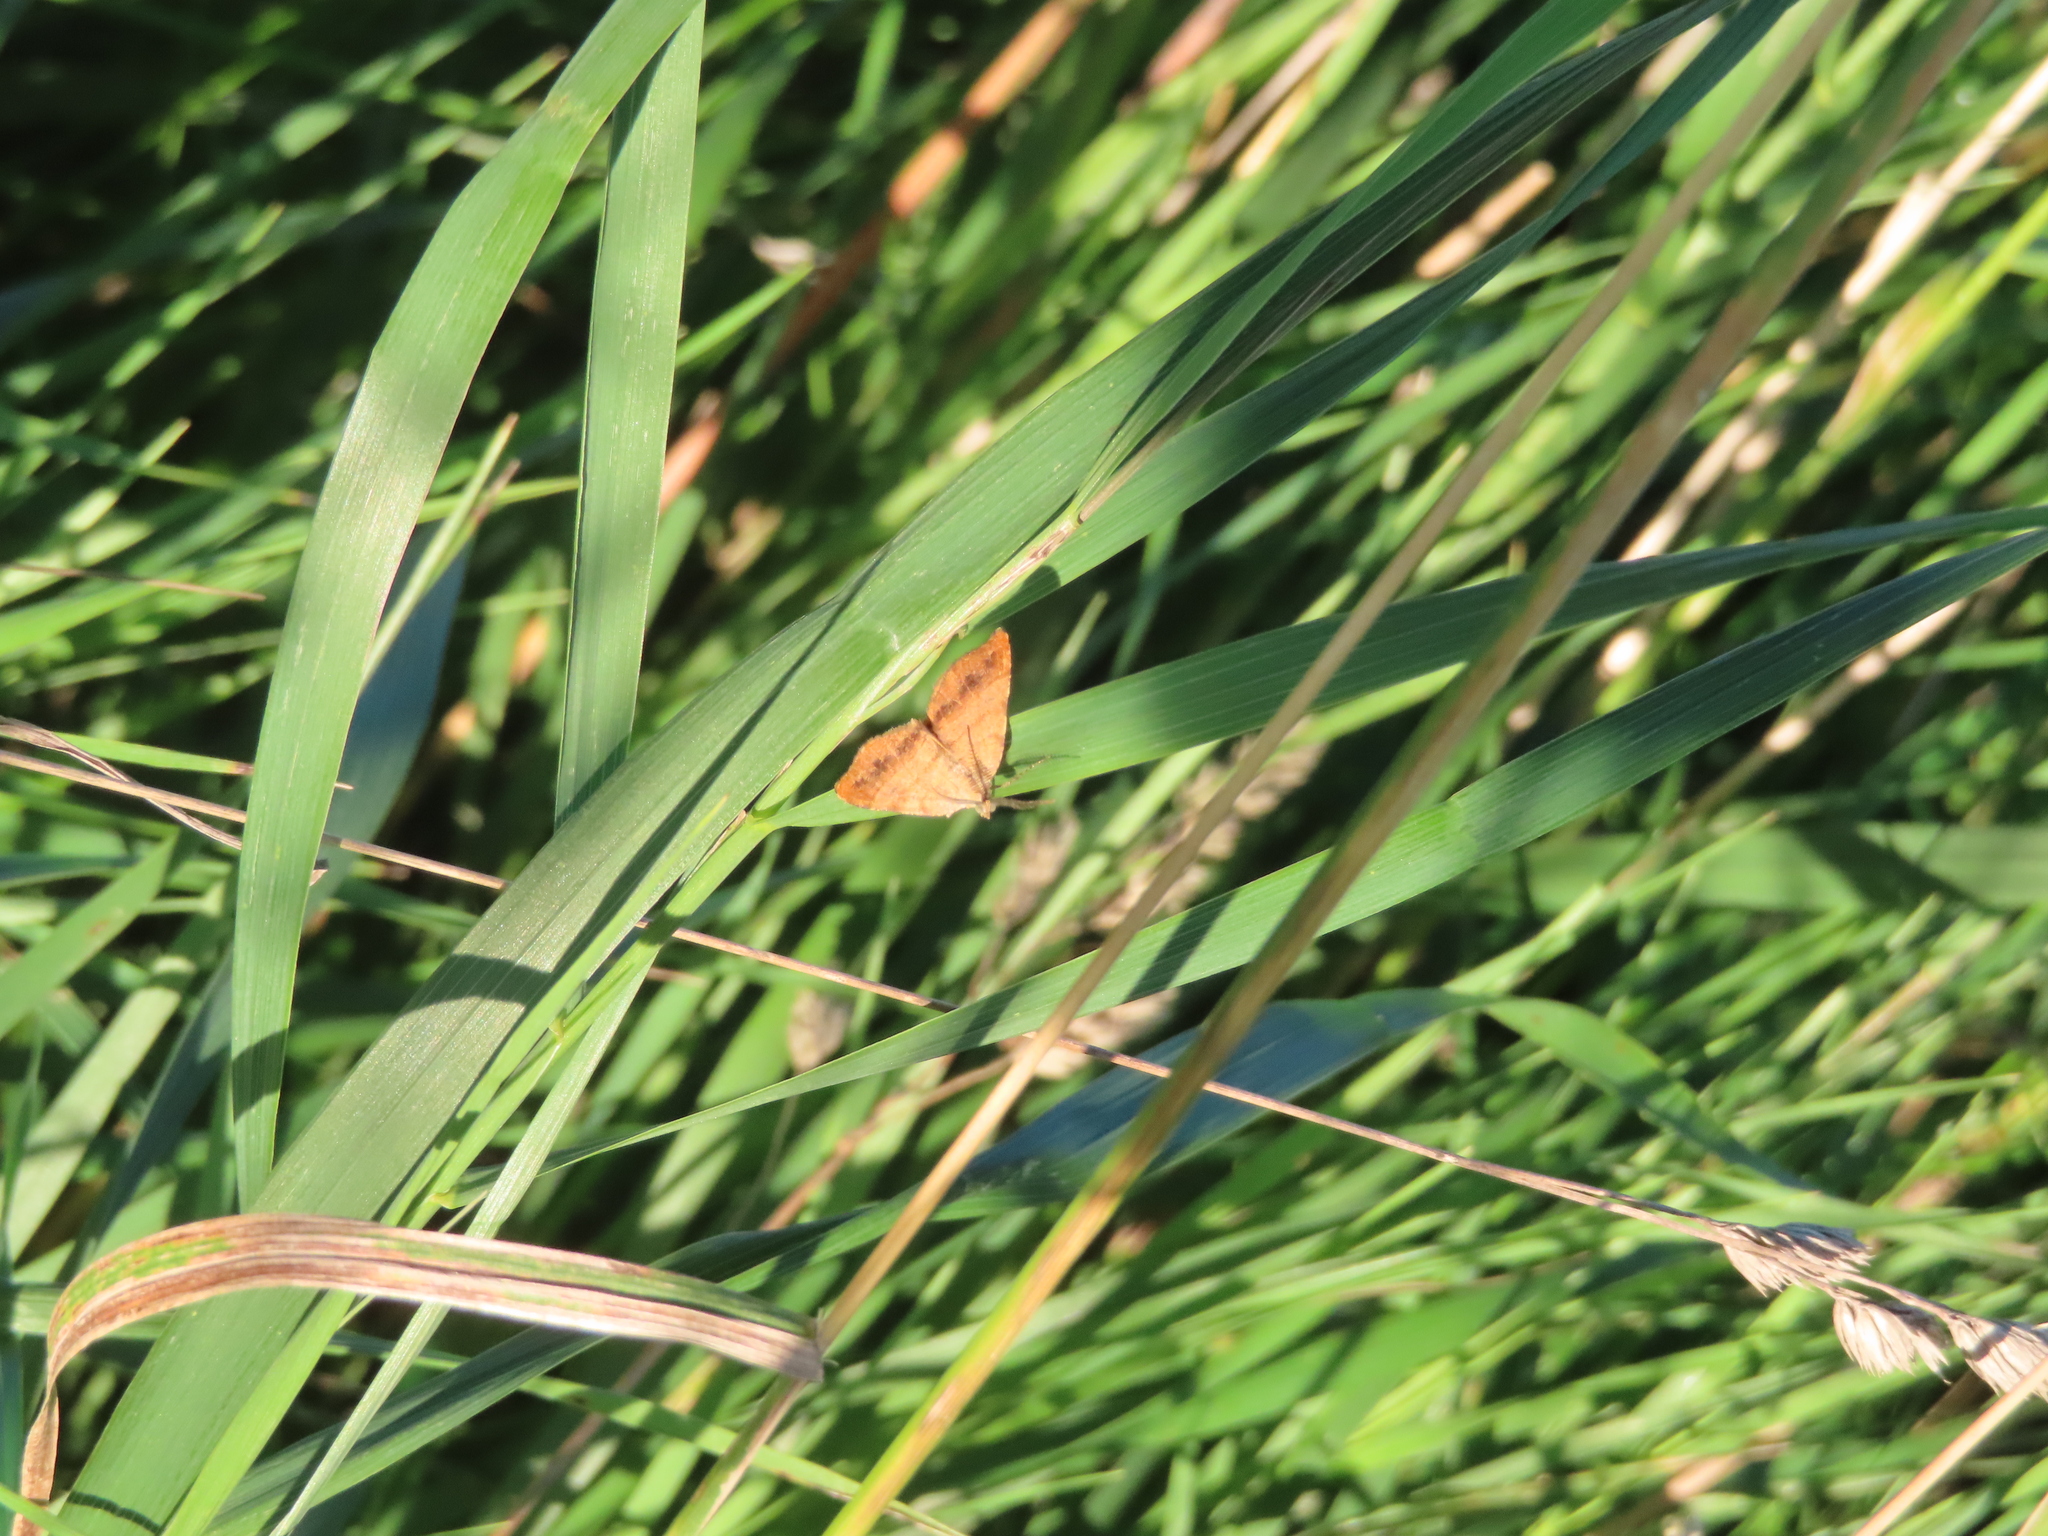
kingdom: Animalia
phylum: Arthropoda
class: Insecta
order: Lepidoptera
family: Geometridae
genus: Mellilla
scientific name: Mellilla xanthometata
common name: Orange wing moth
